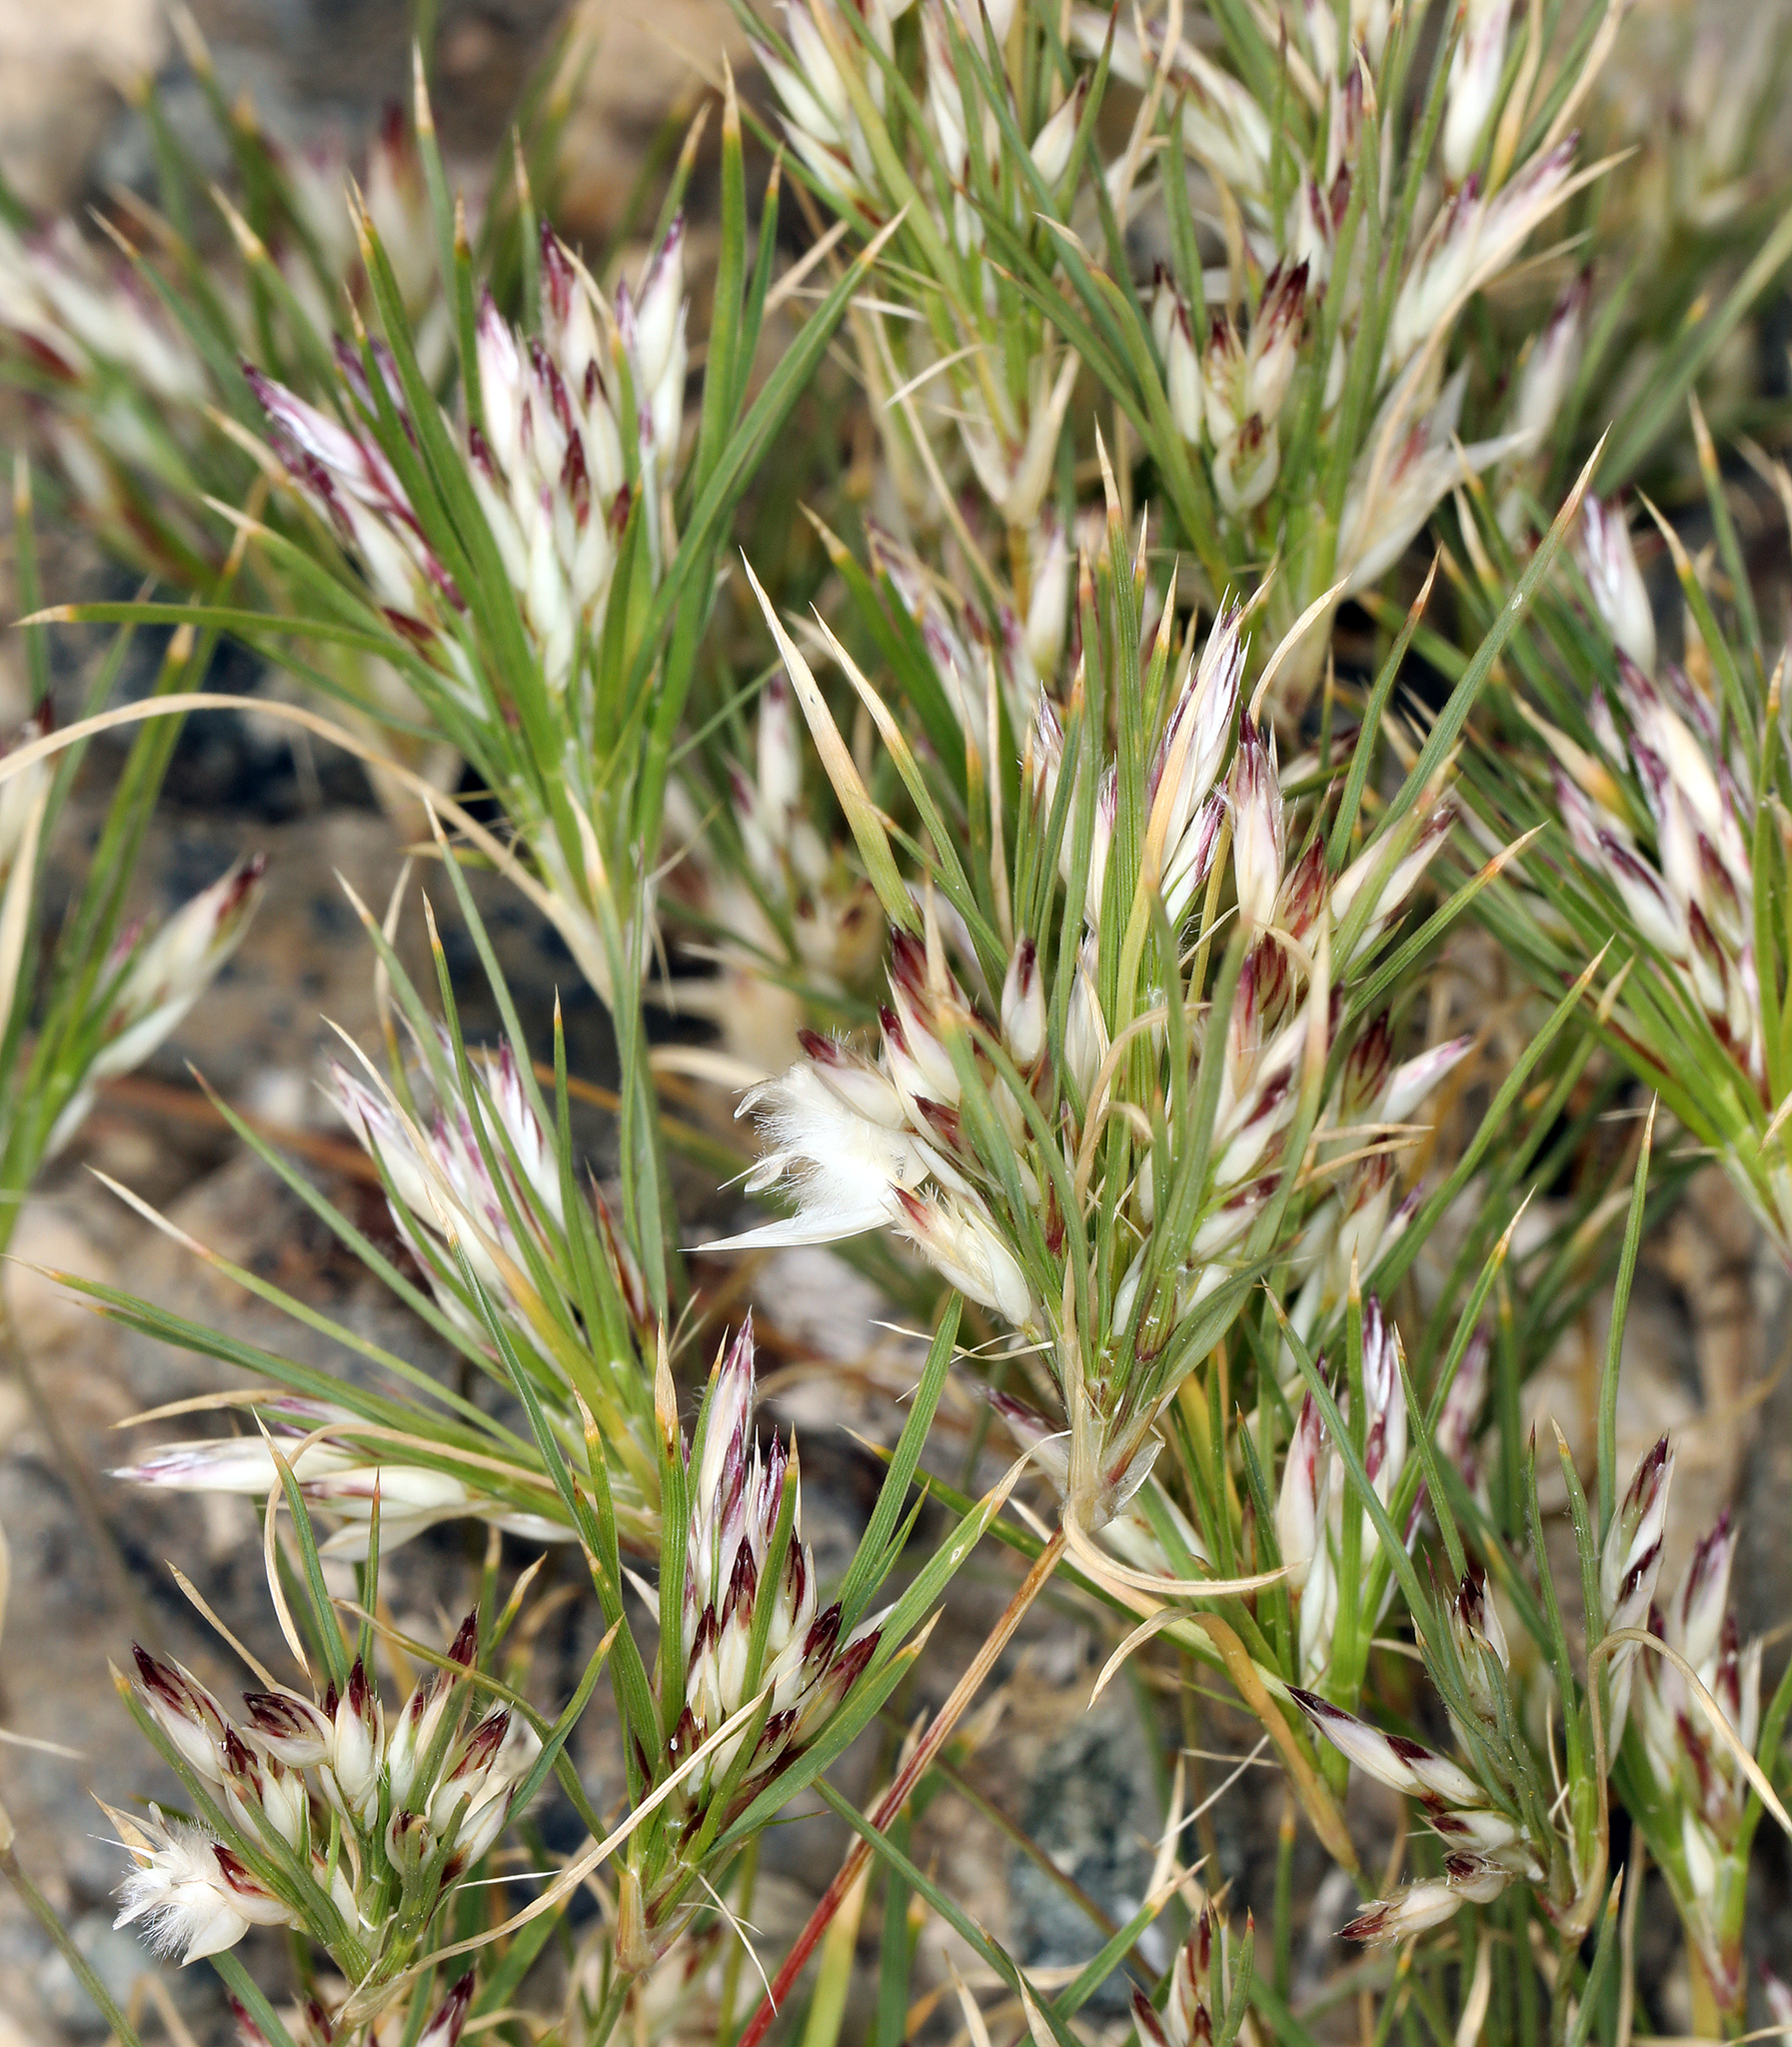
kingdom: Plantae
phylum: Tracheophyta
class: Liliopsida
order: Poales
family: Poaceae
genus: Dasyochloa
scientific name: Dasyochloa pulchella
